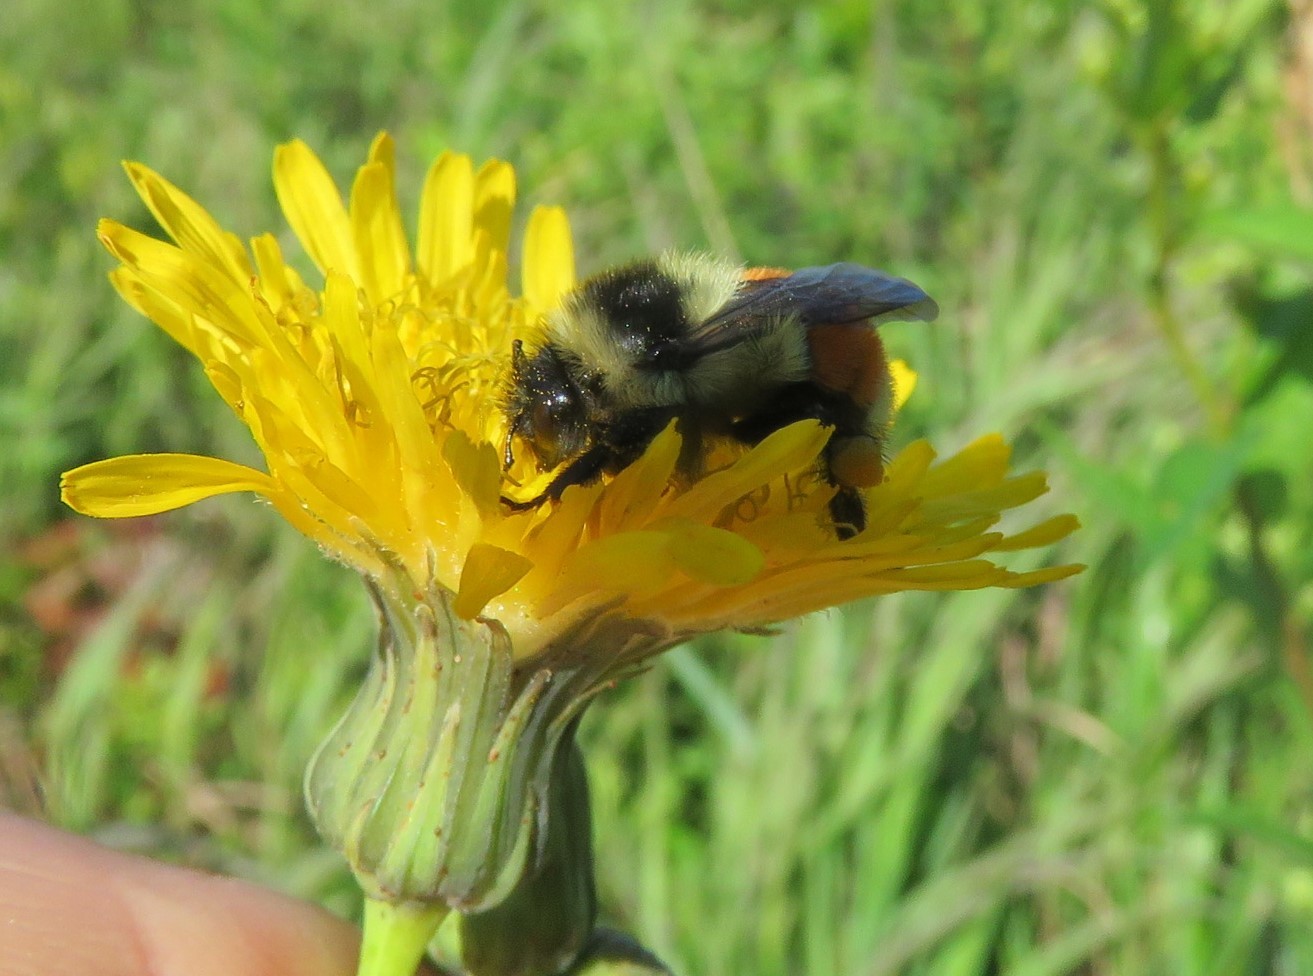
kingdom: Animalia
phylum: Arthropoda
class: Insecta
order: Hymenoptera
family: Apidae
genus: Bombus
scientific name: Bombus ternarius
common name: Tri-colored bumble bee
